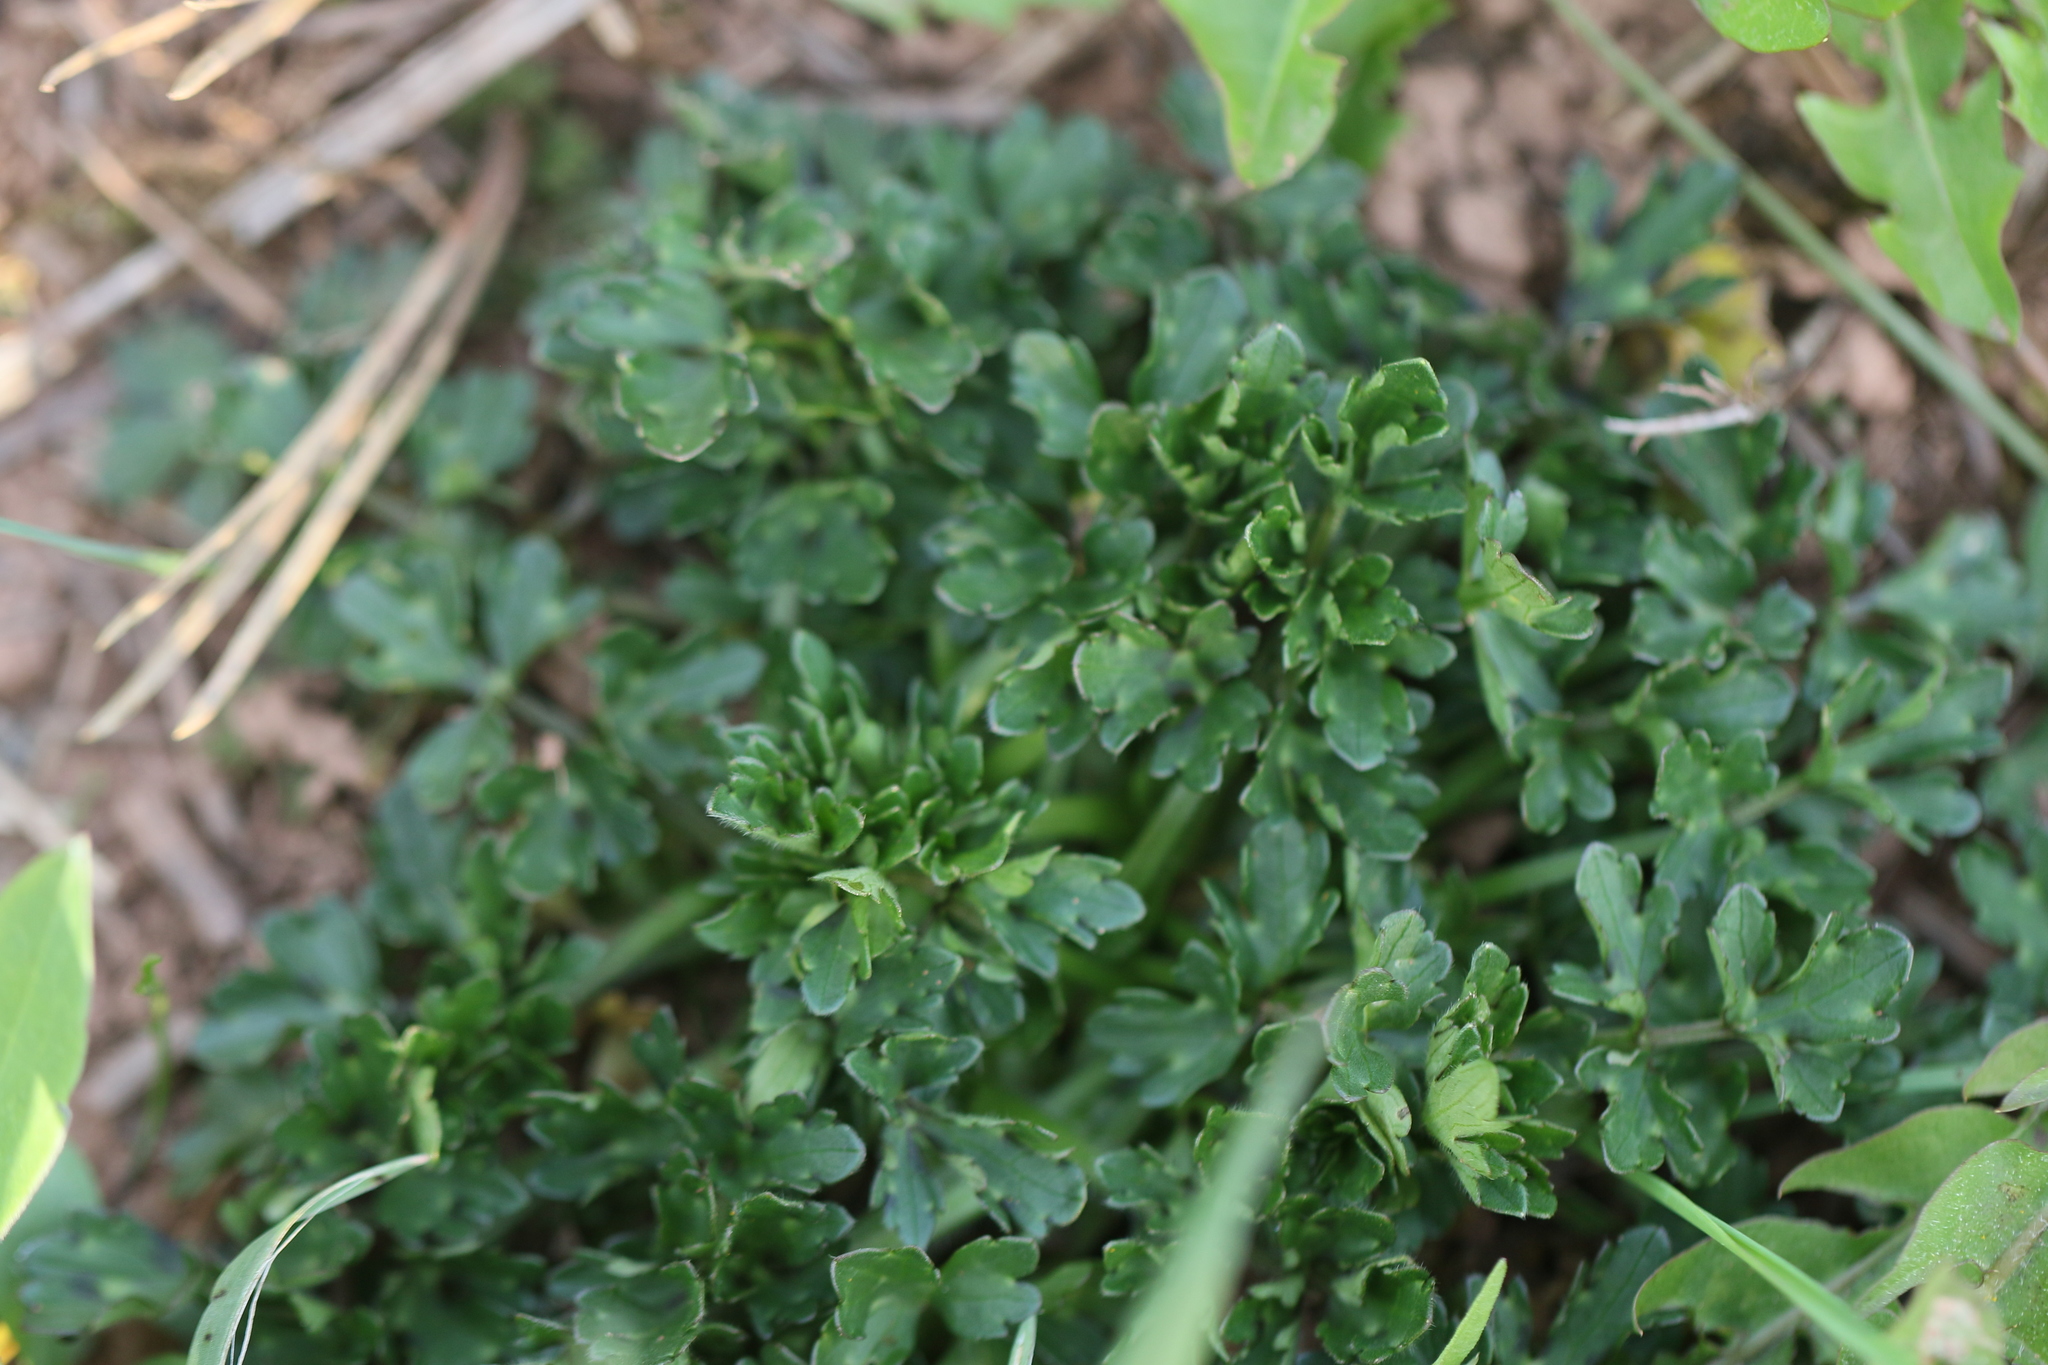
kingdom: Plantae
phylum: Tracheophyta
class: Magnoliopsida
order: Ranunculales
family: Ranunculaceae
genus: Ranunculus
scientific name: Ranunculus repens
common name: Creeping buttercup
